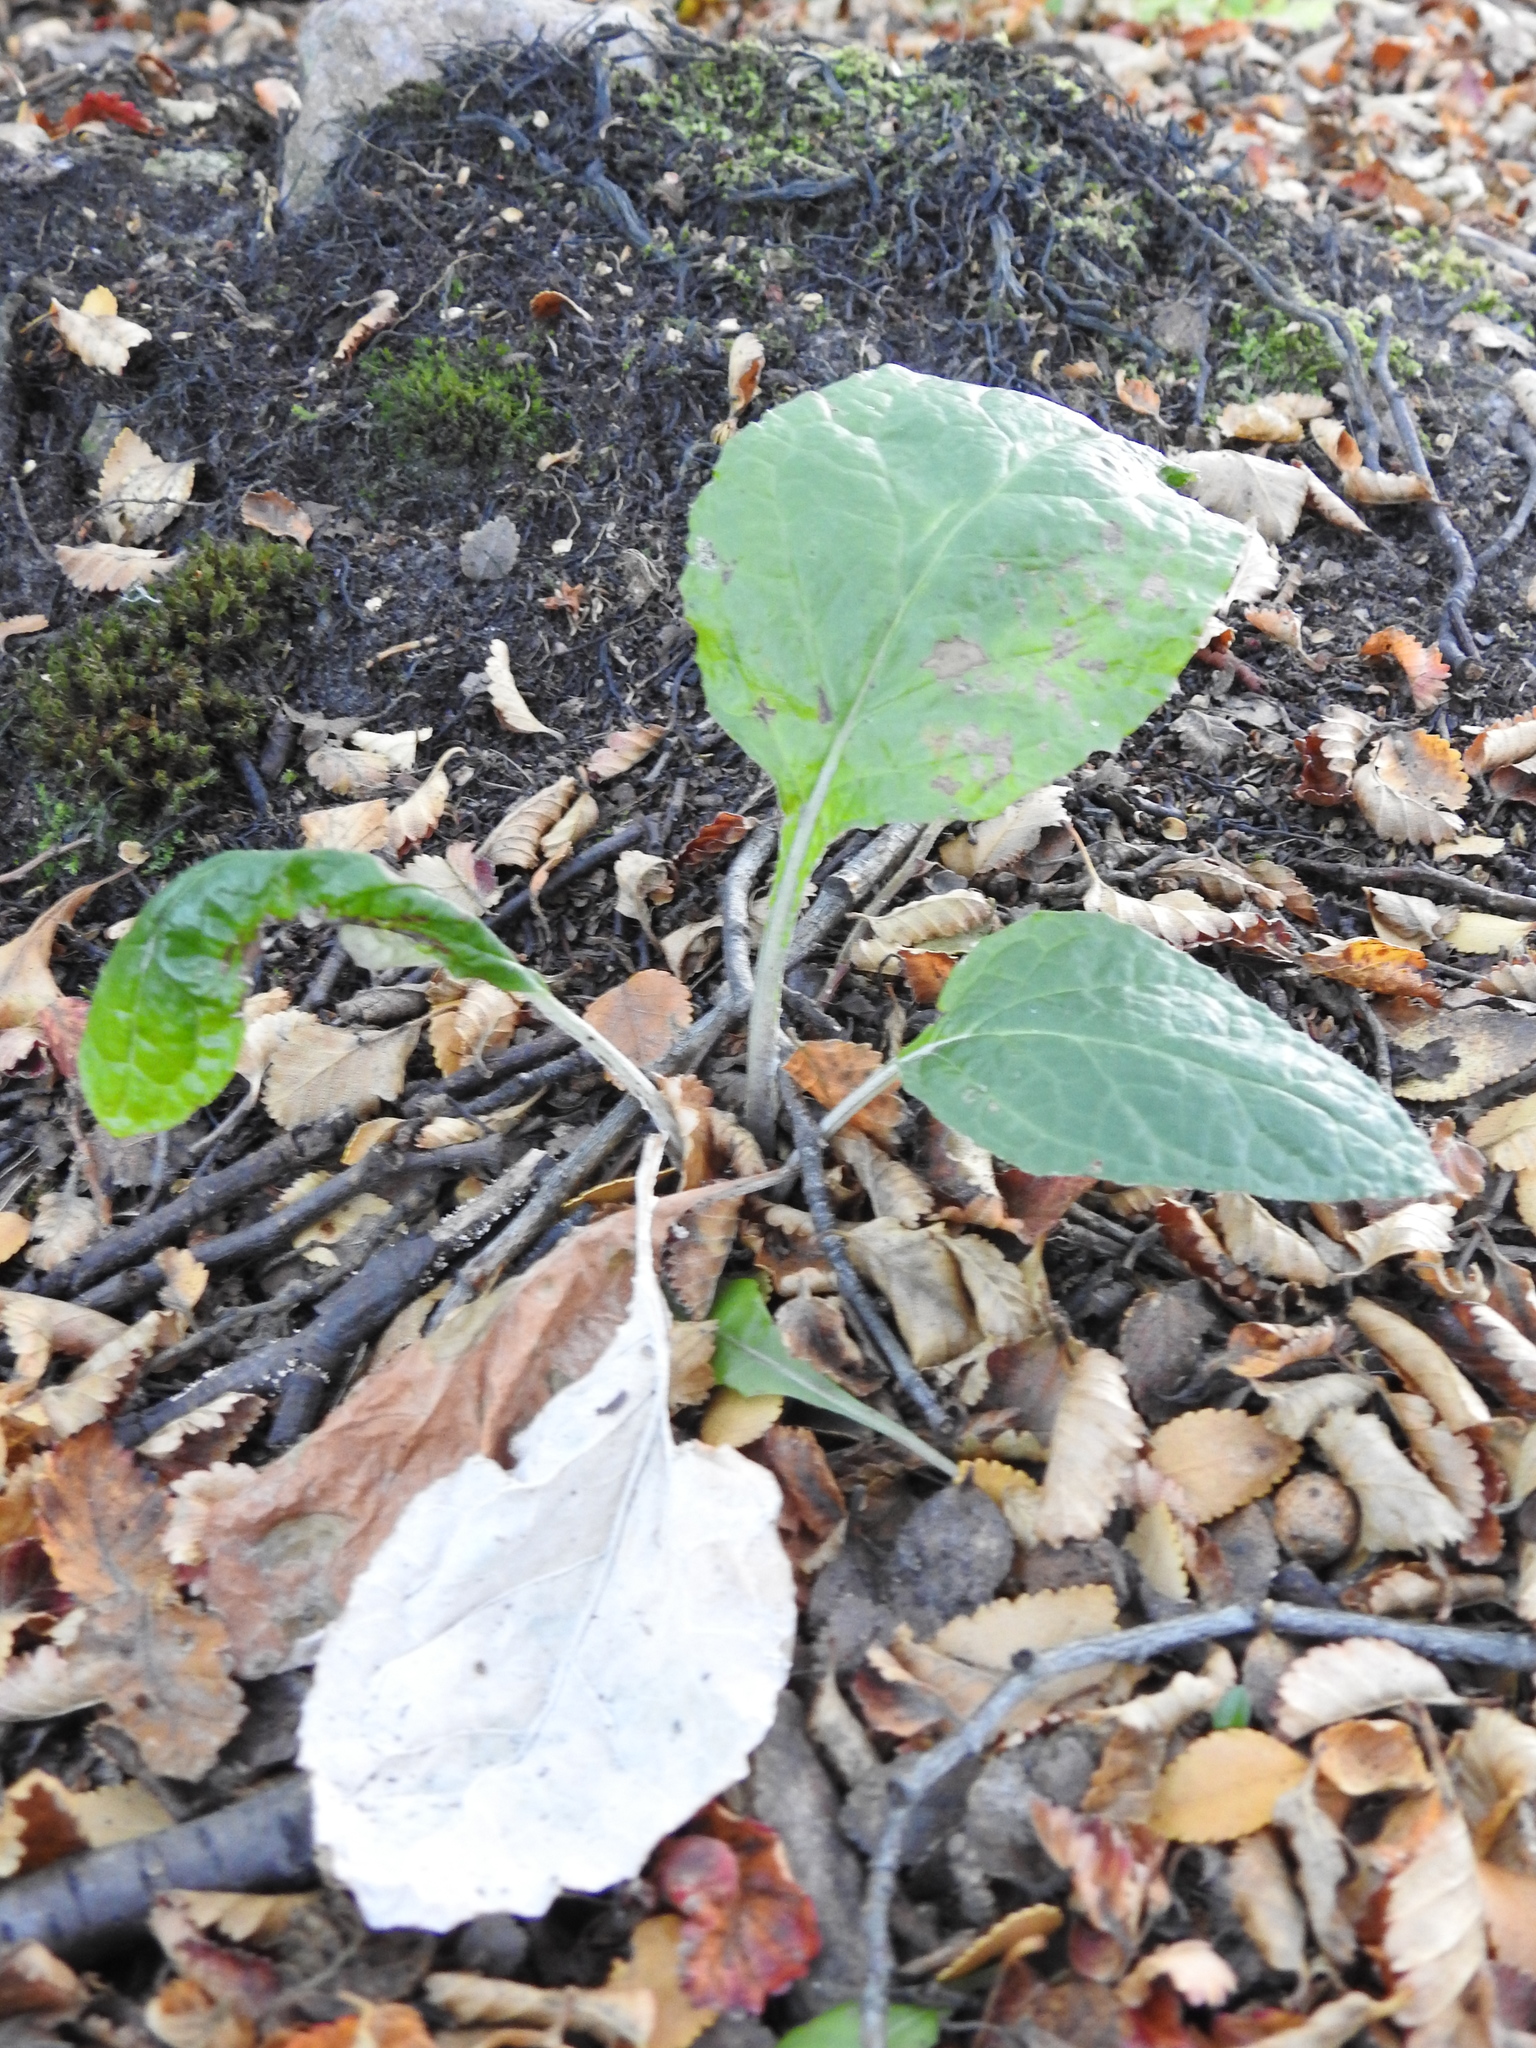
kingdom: Plantae
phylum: Tracheophyta
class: Magnoliopsida
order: Asterales
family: Asteraceae
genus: Adenocaulon
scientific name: Adenocaulon chilense
